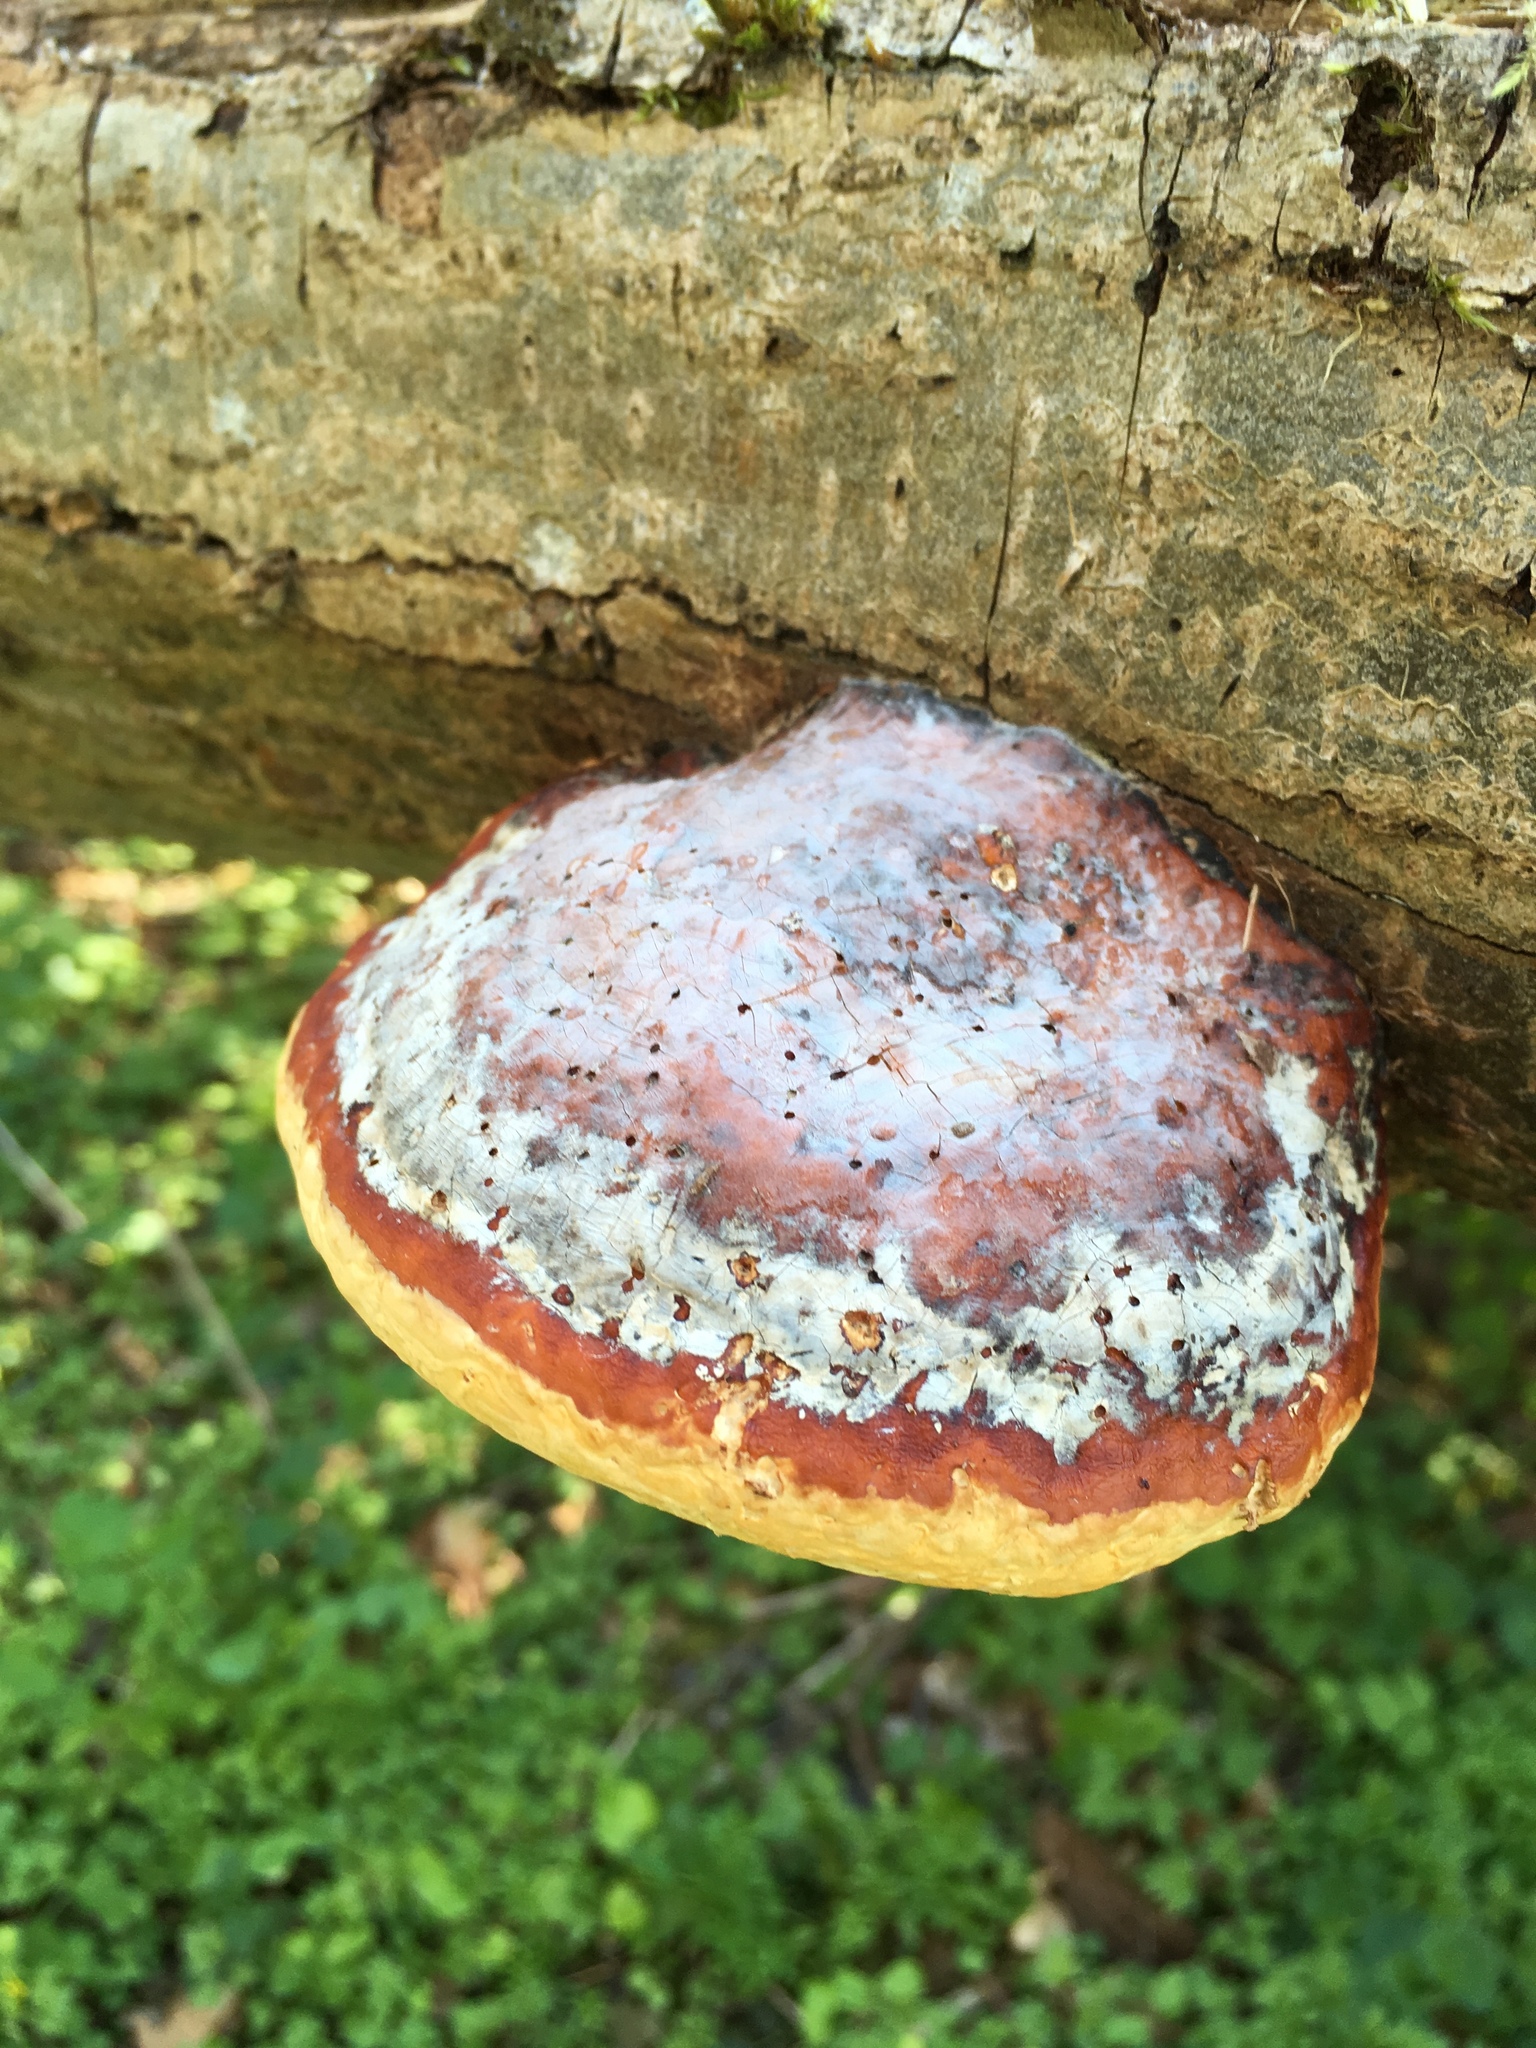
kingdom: Fungi
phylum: Basidiomycota
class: Agaricomycetes
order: Polyporales
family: Fomitopsidaceae
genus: Fomitopsis
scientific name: Fomitopsis pinicola
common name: Red-belted bracket
